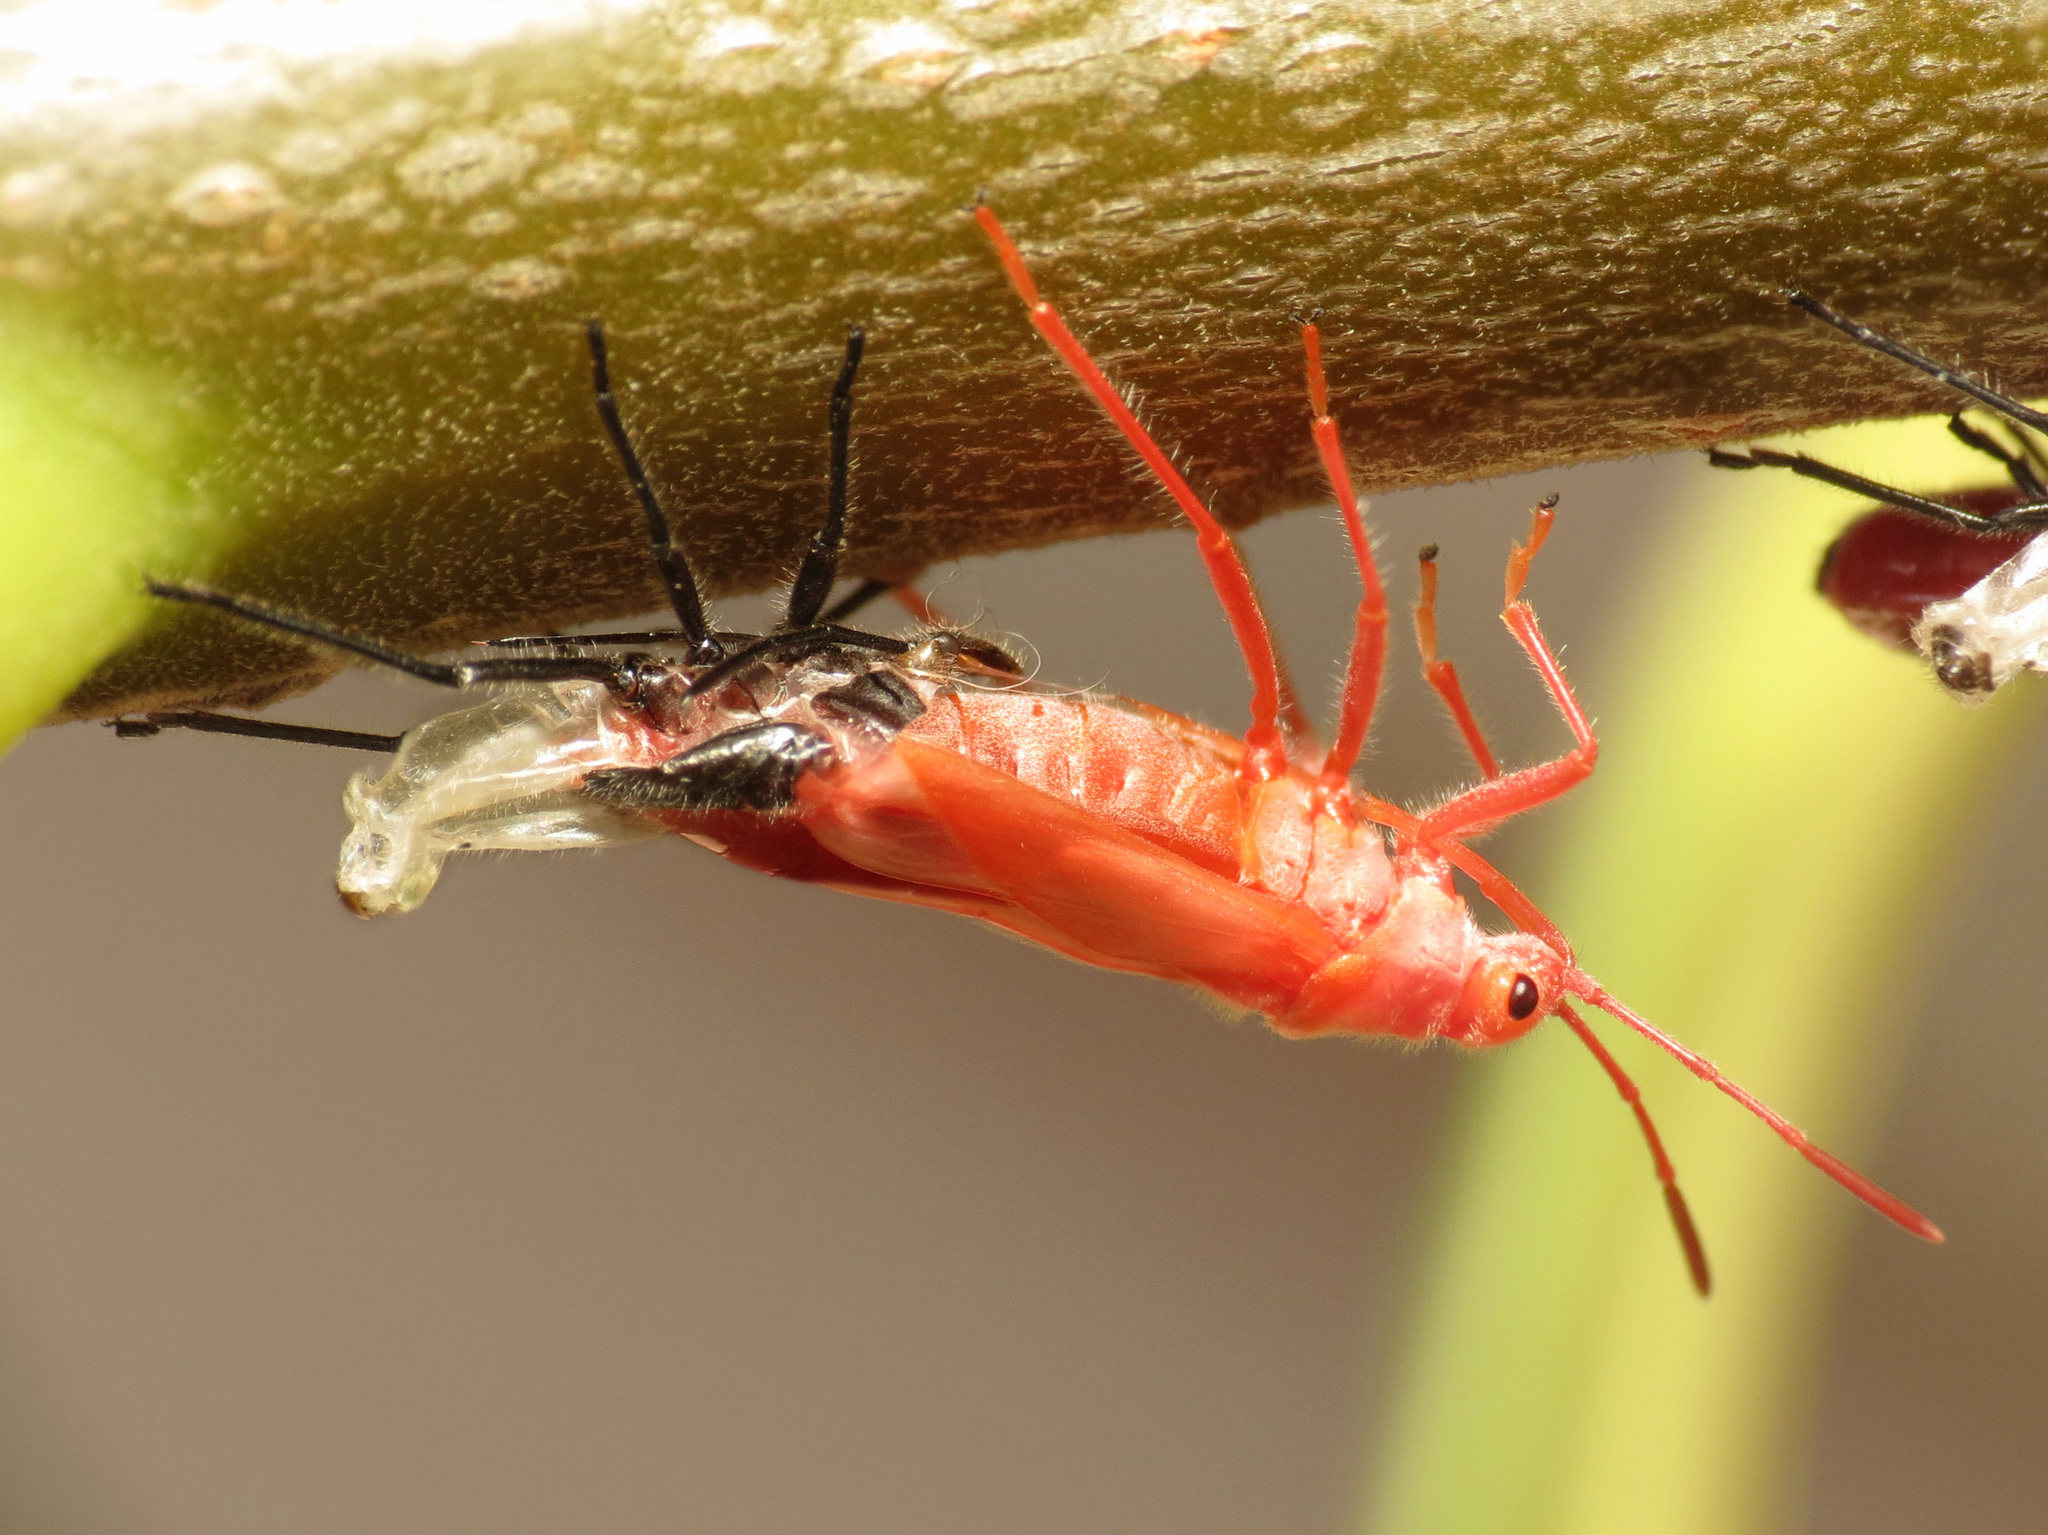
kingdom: Animalia
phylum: Arthropoda
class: Insecta
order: Hemiptera
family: Lygaeidae
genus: Caenocoris
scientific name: Caenocoris nerii
